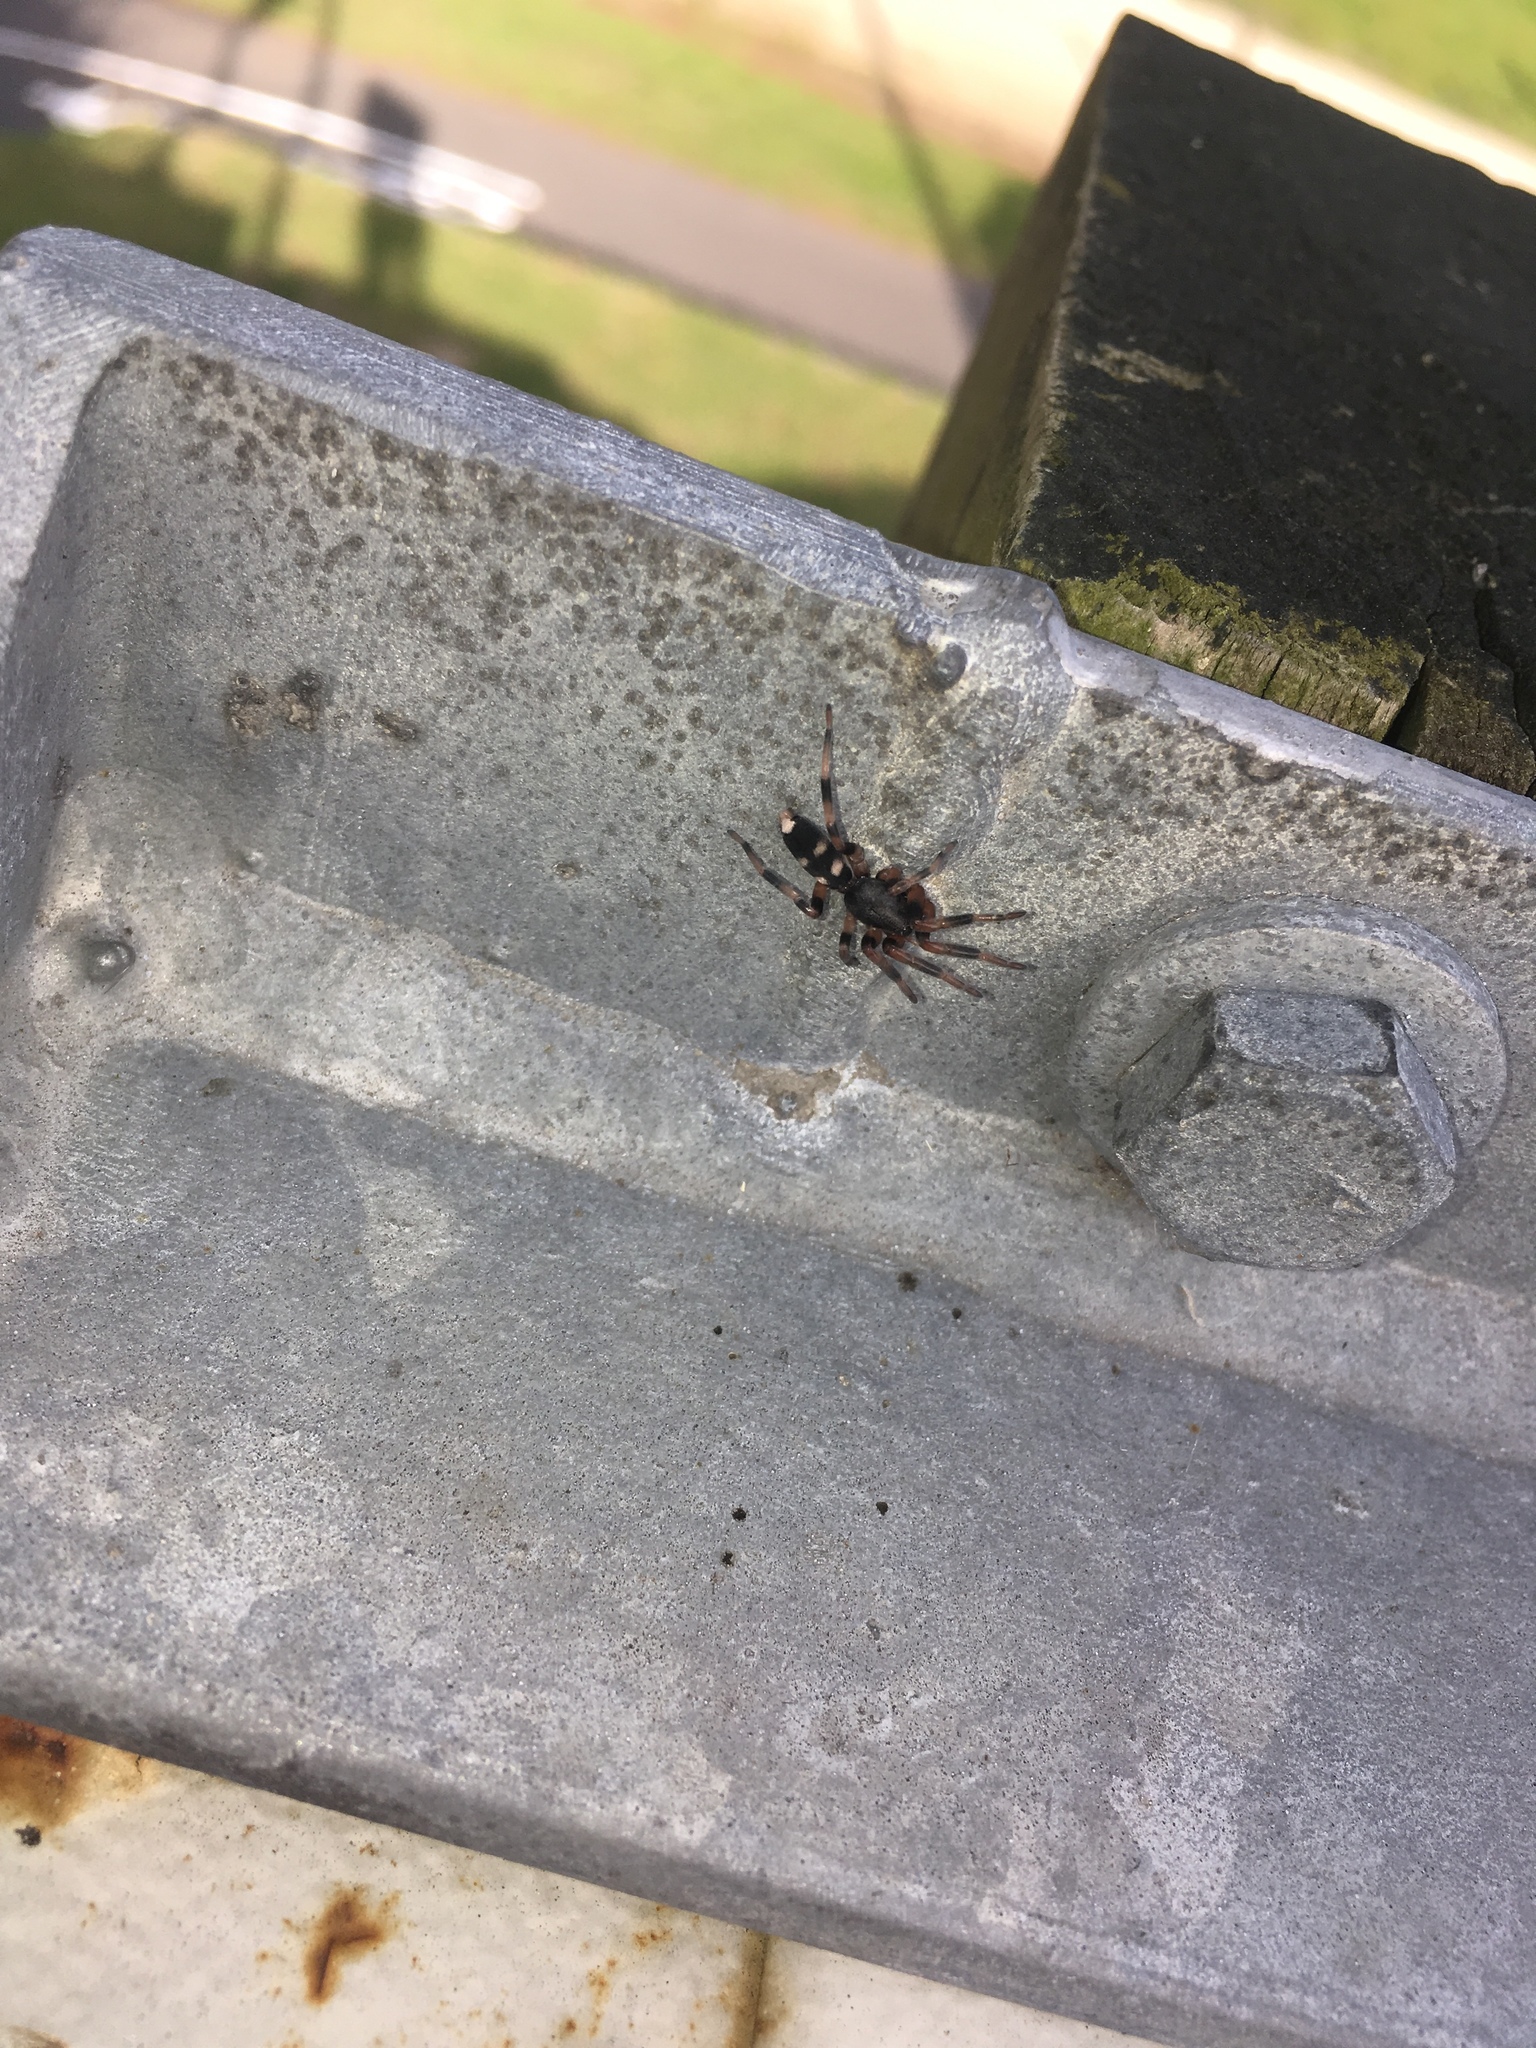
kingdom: Animalia
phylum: Arthropoda
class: Arachnida
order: Araneae
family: Lamponidae
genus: Lampona
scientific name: Lampona murina
